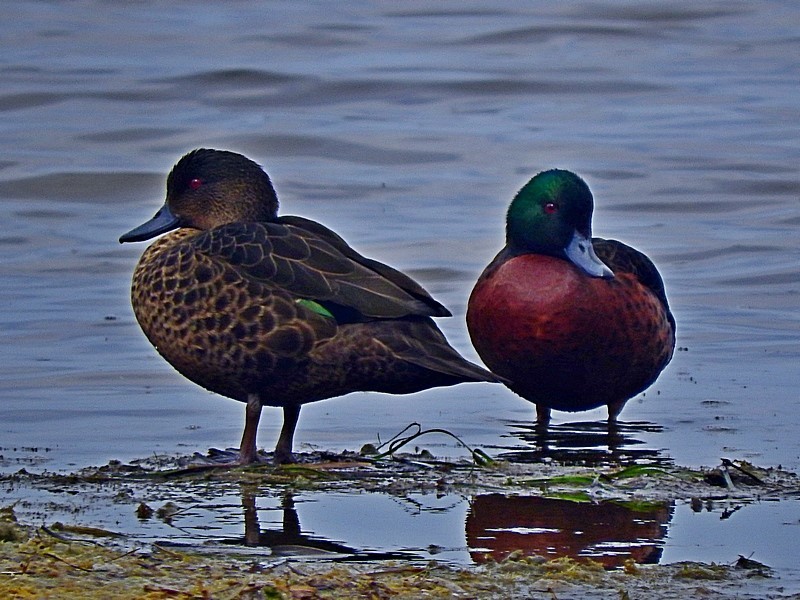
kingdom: Animalia
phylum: Chordata
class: Aves
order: Anseriformes
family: Anatidae
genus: Anas
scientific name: Anas castanea
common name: Chestnut teal
